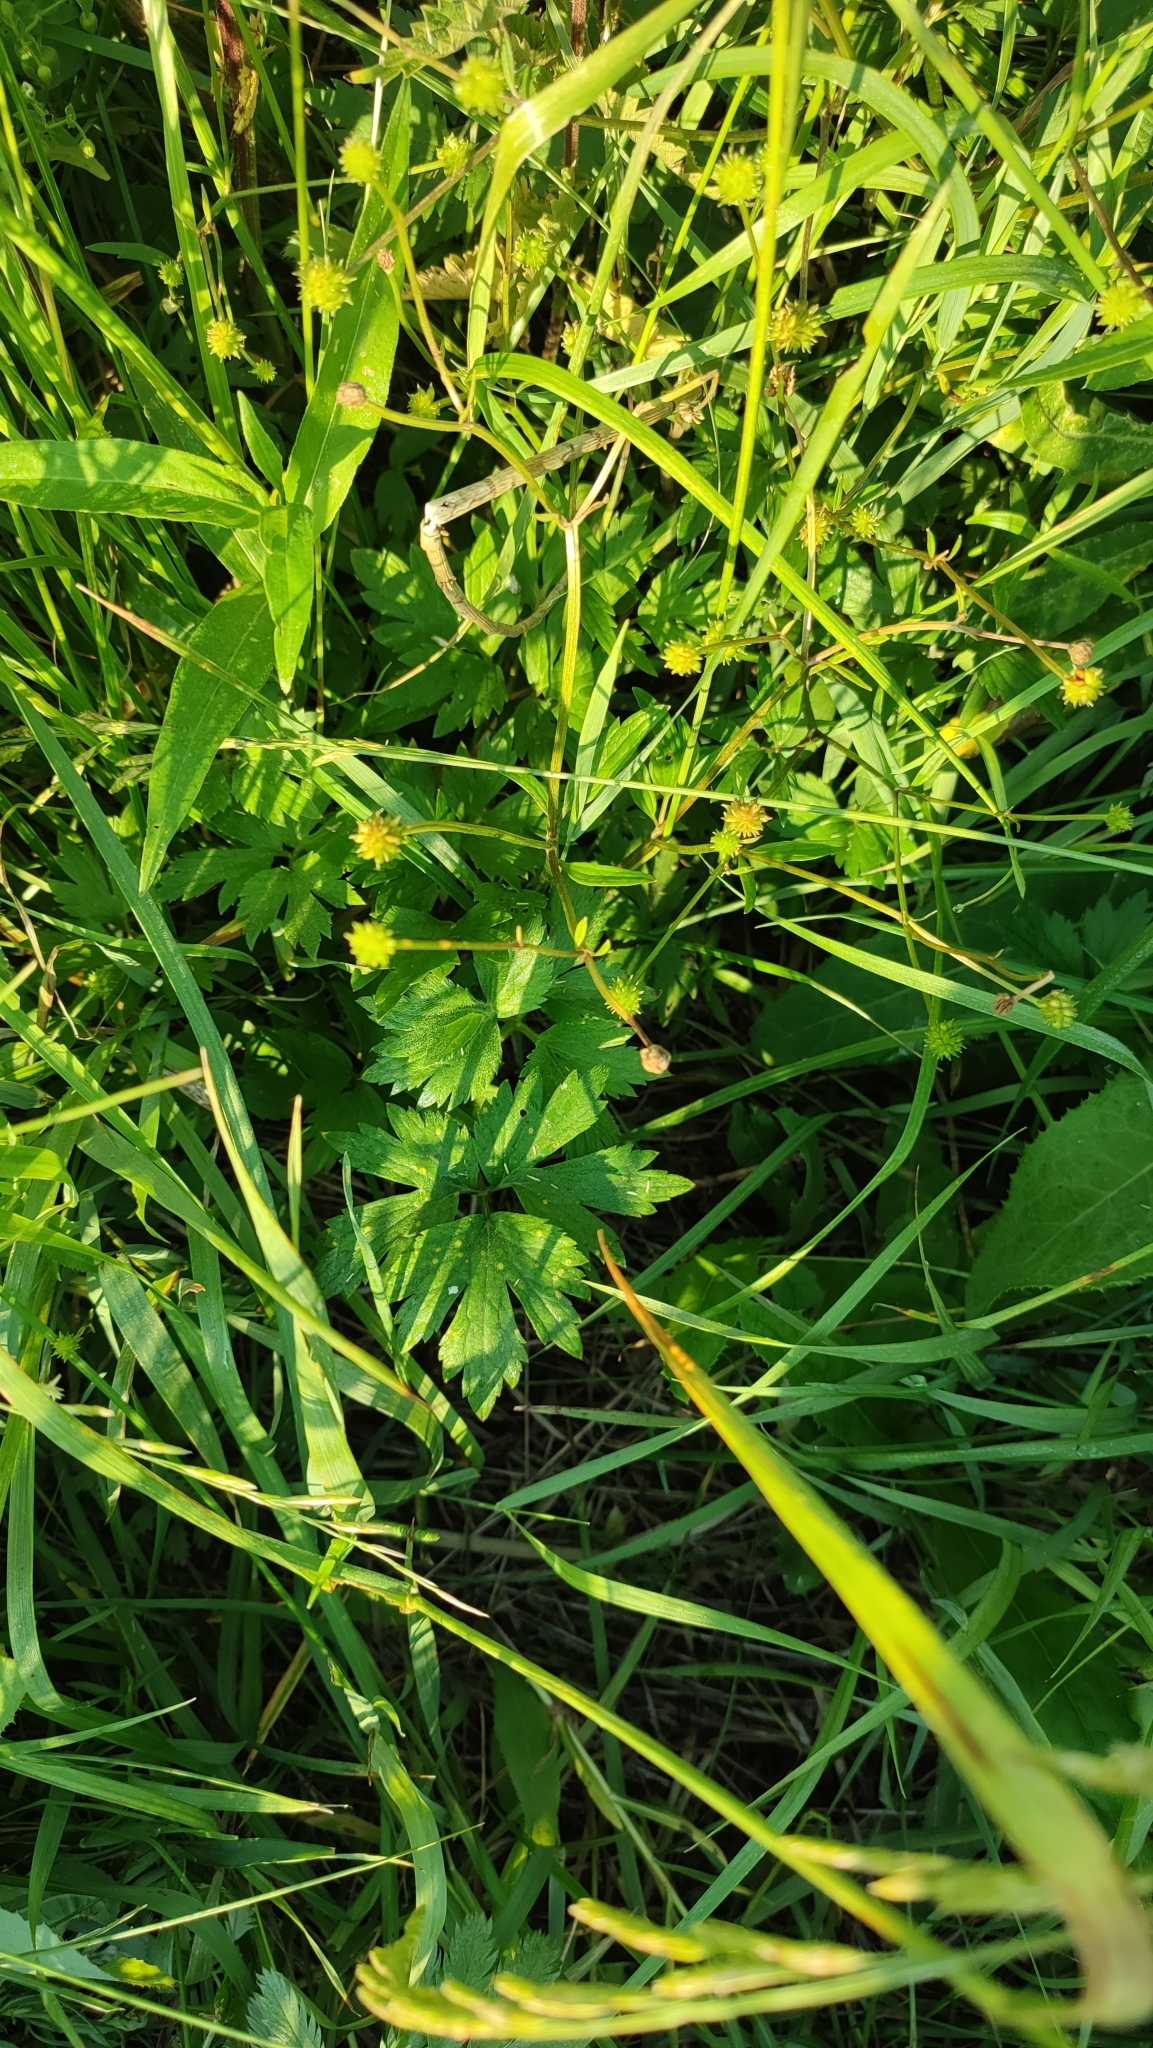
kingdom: Plantae
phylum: Tracheophyta
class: Magnoliopsida
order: Ranunculales
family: Ranunculaceae
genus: Ranunculus
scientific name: Ranunculus repens
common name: Creeping buttercup
